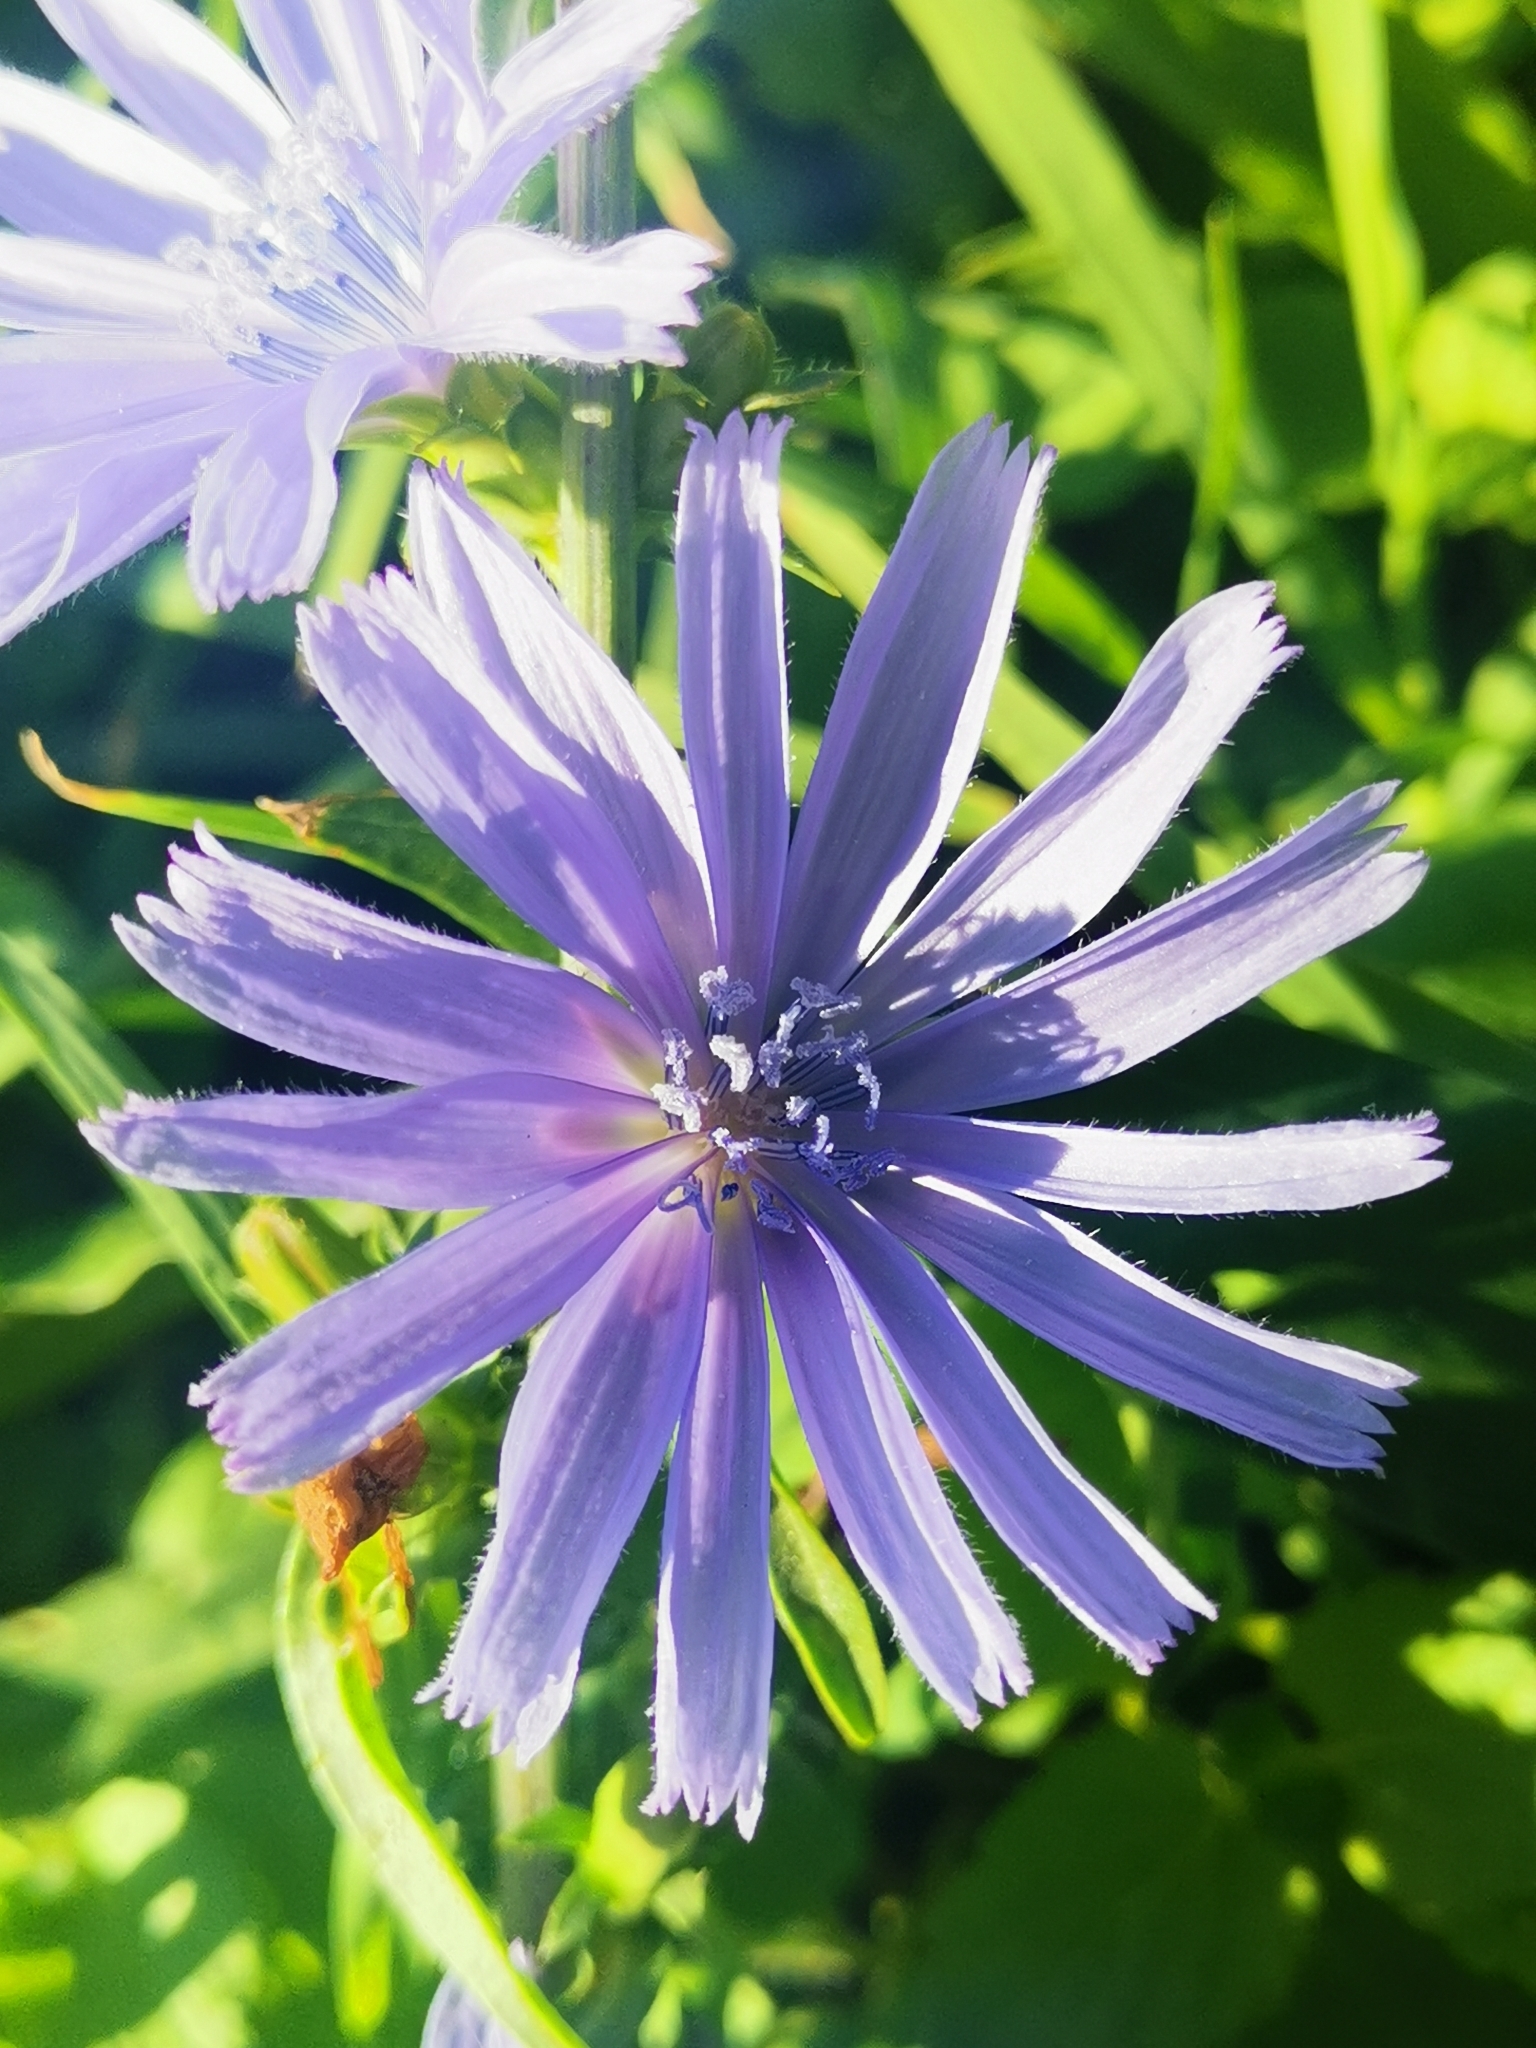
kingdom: Plantae
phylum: Tracheophyta
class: Magnoliopsida
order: Asterales
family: Asteraceae
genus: Cichorium
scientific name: Cichorium intybus
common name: Chicory
